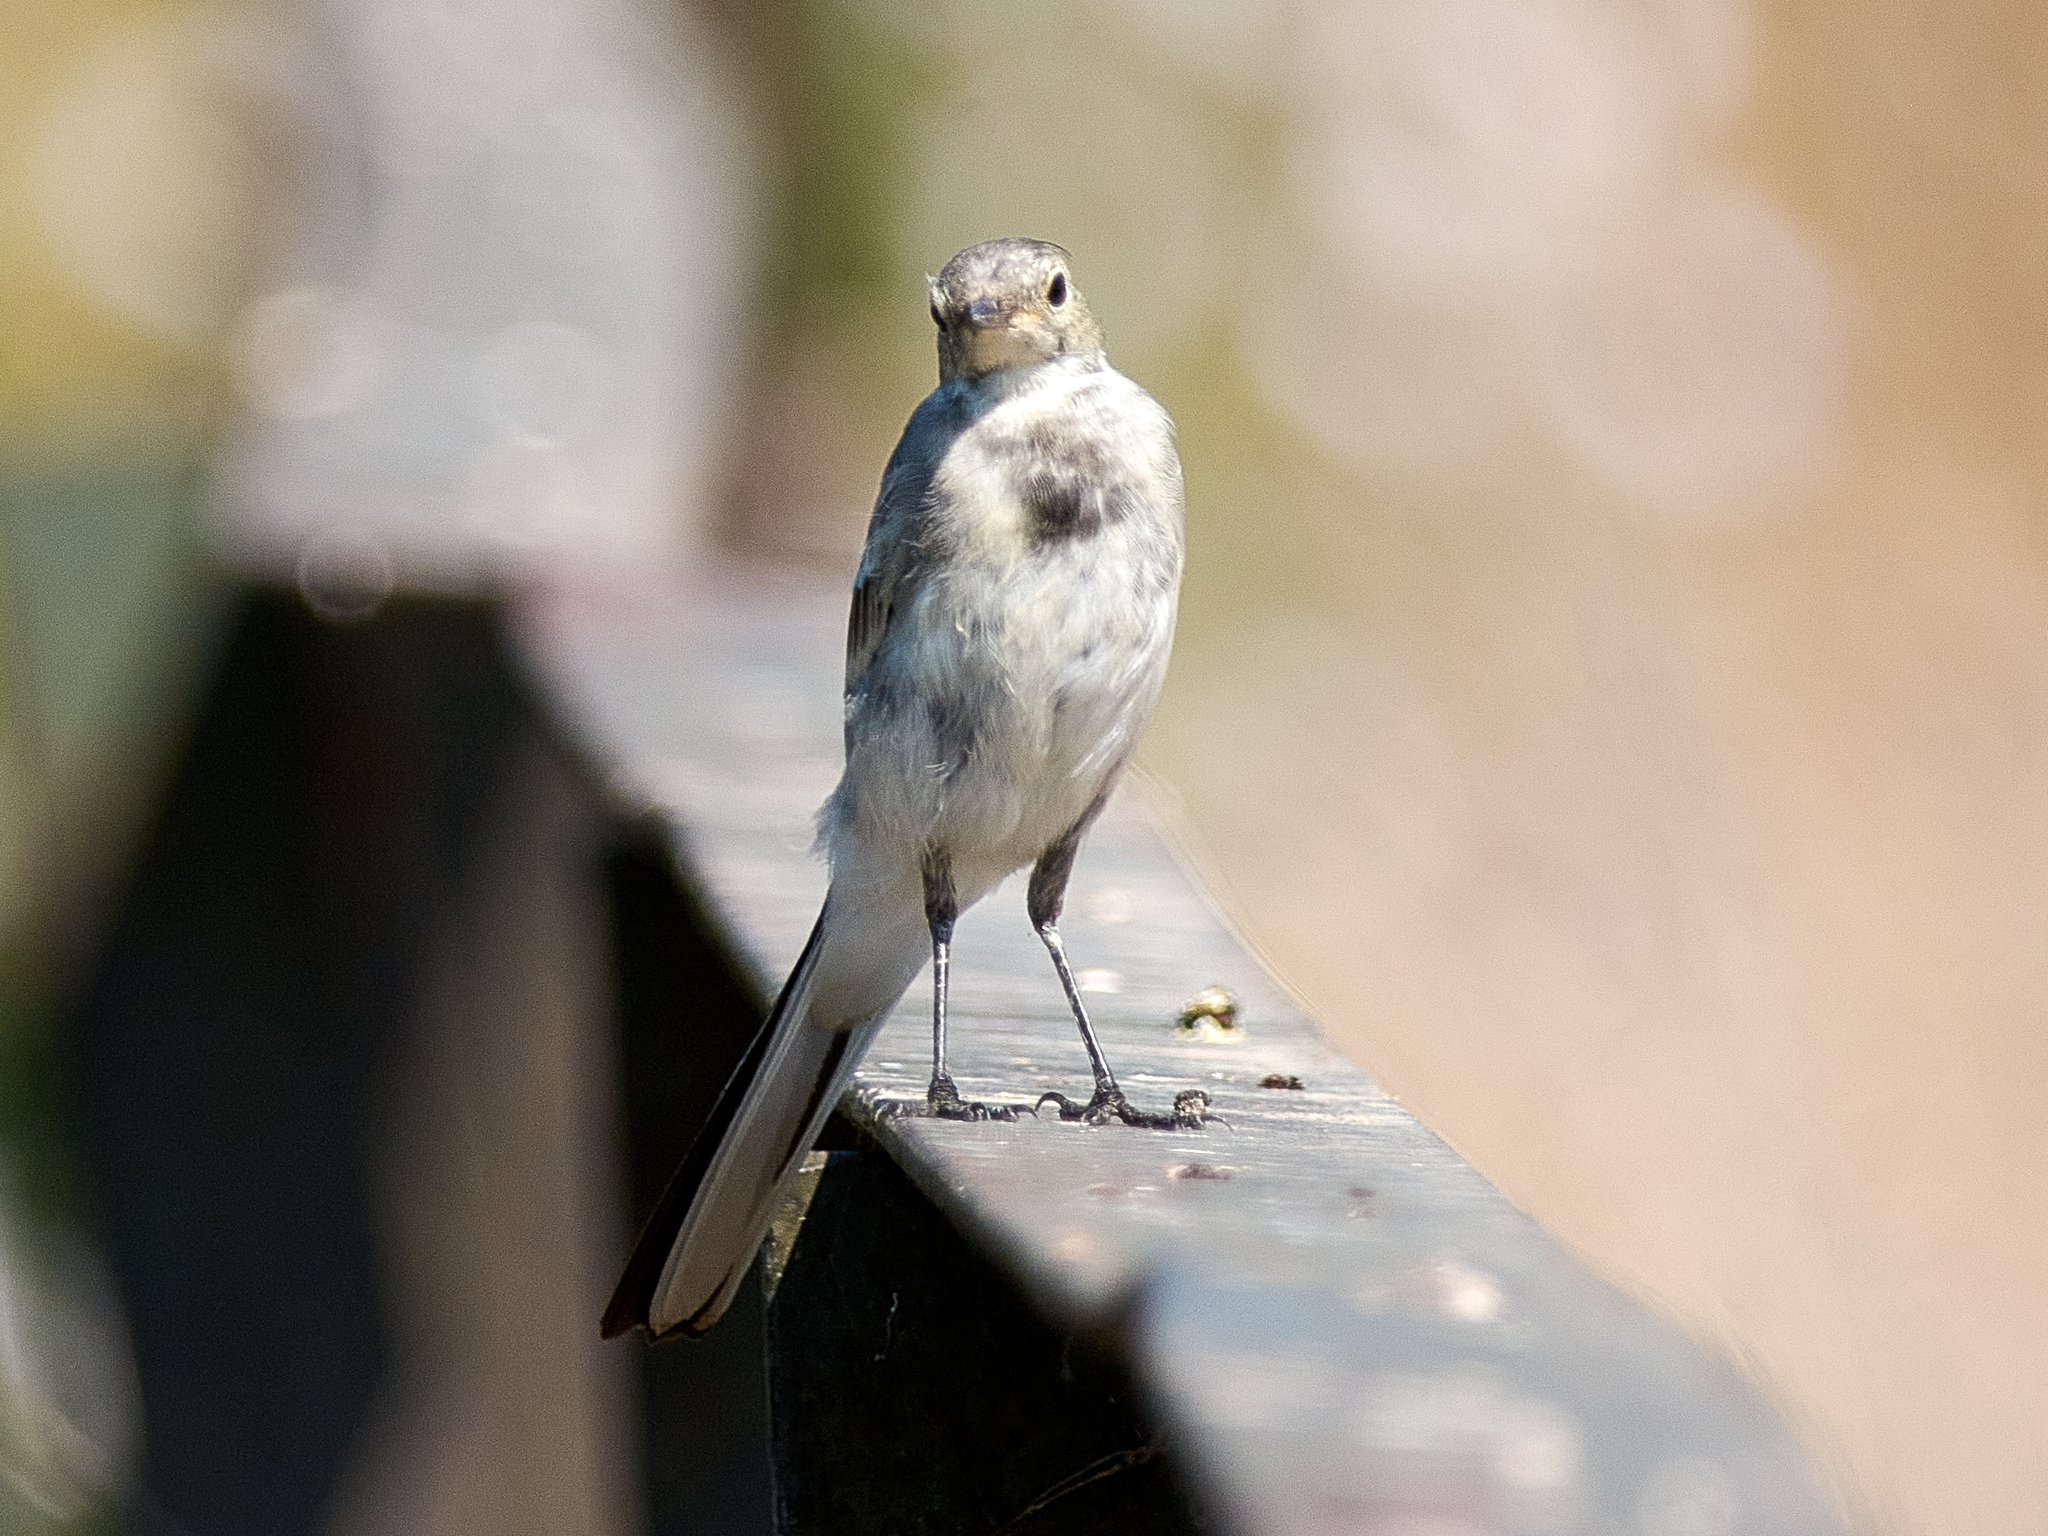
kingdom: Animalia
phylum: Chordata
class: Aves
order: Passeriformes
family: Motacillidae
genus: Motacilla
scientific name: Motacilla alba
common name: White wagtail
